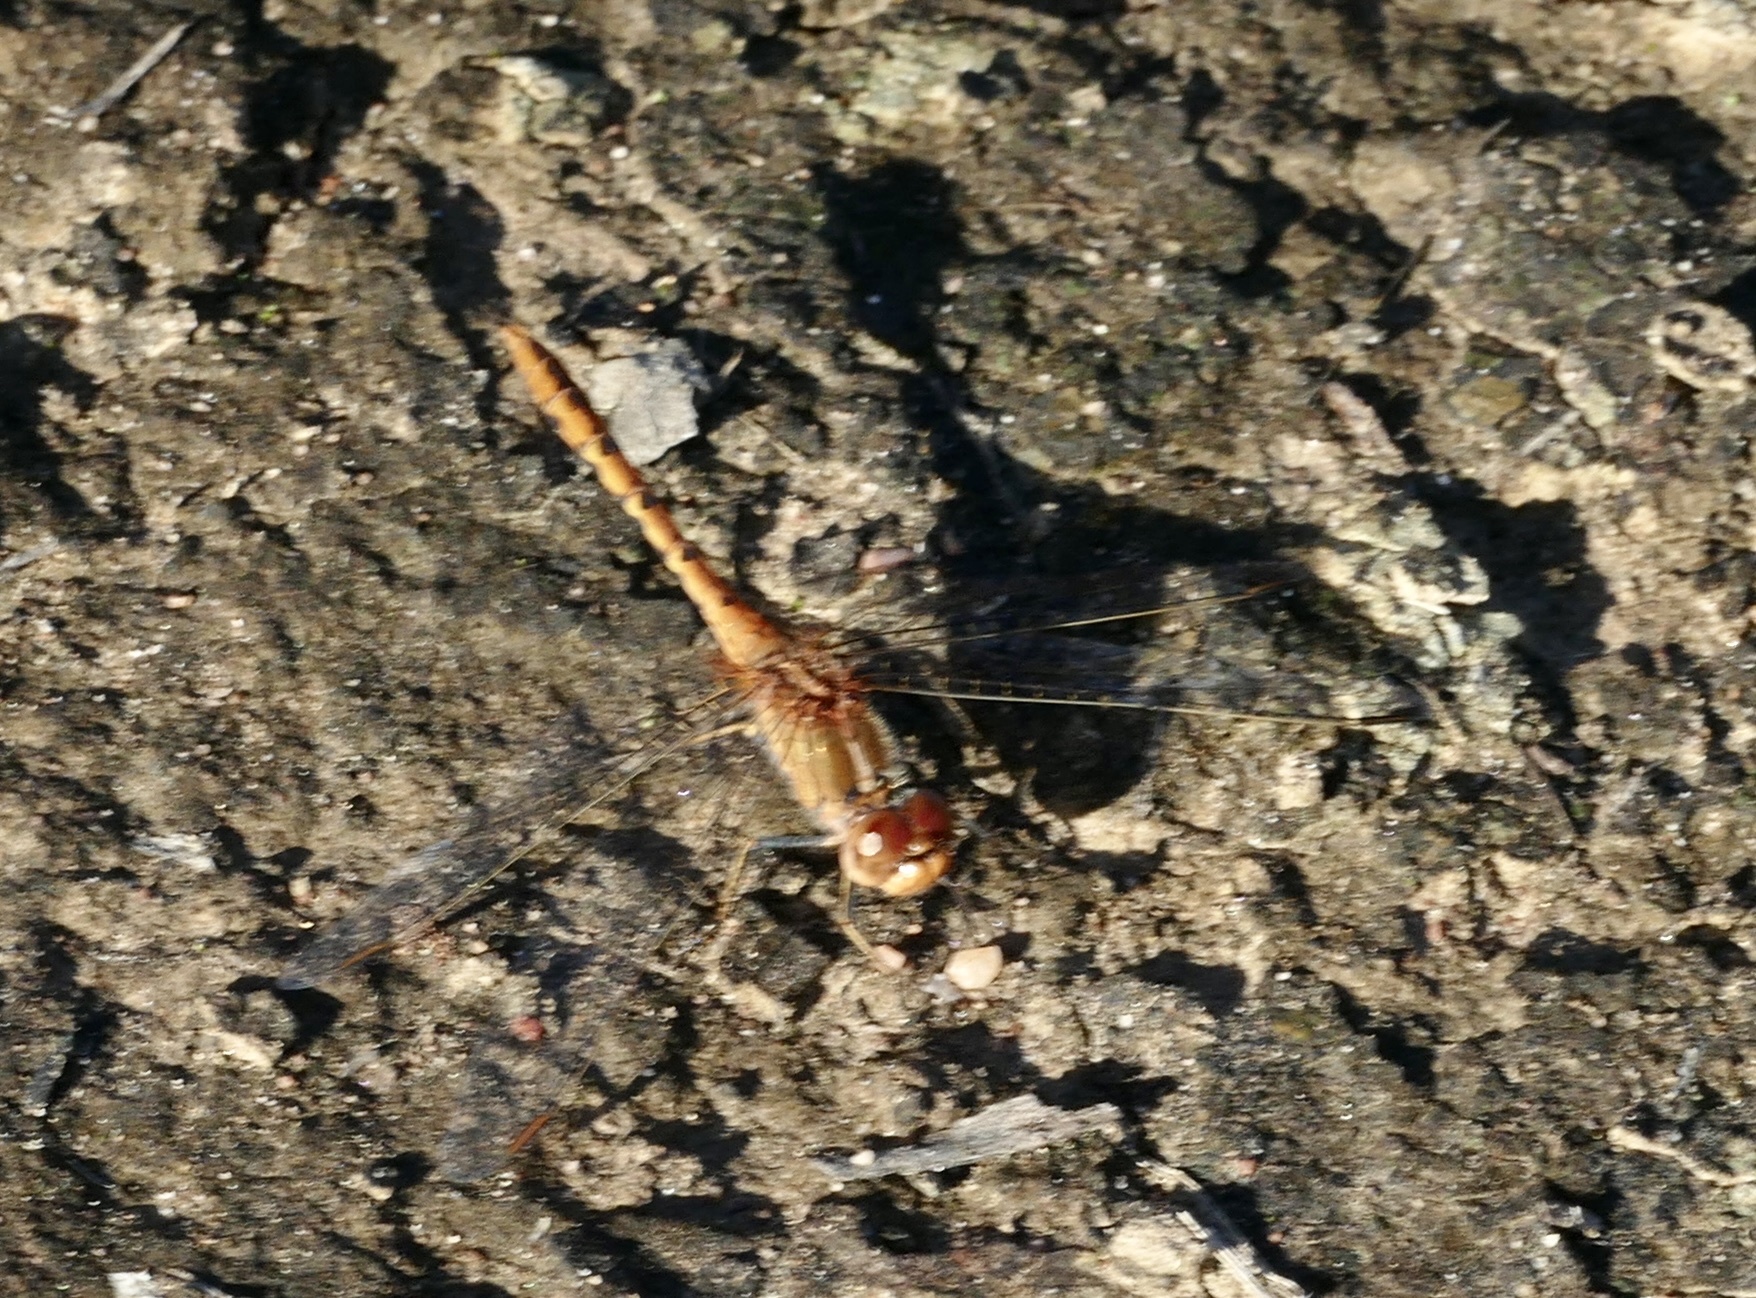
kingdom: Animalia
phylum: Arthropoda
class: Insecta
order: Odonata
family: Libellulidae
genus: Diplacodes
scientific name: Diplacodes bipunctata
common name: Red percher dragonfly
